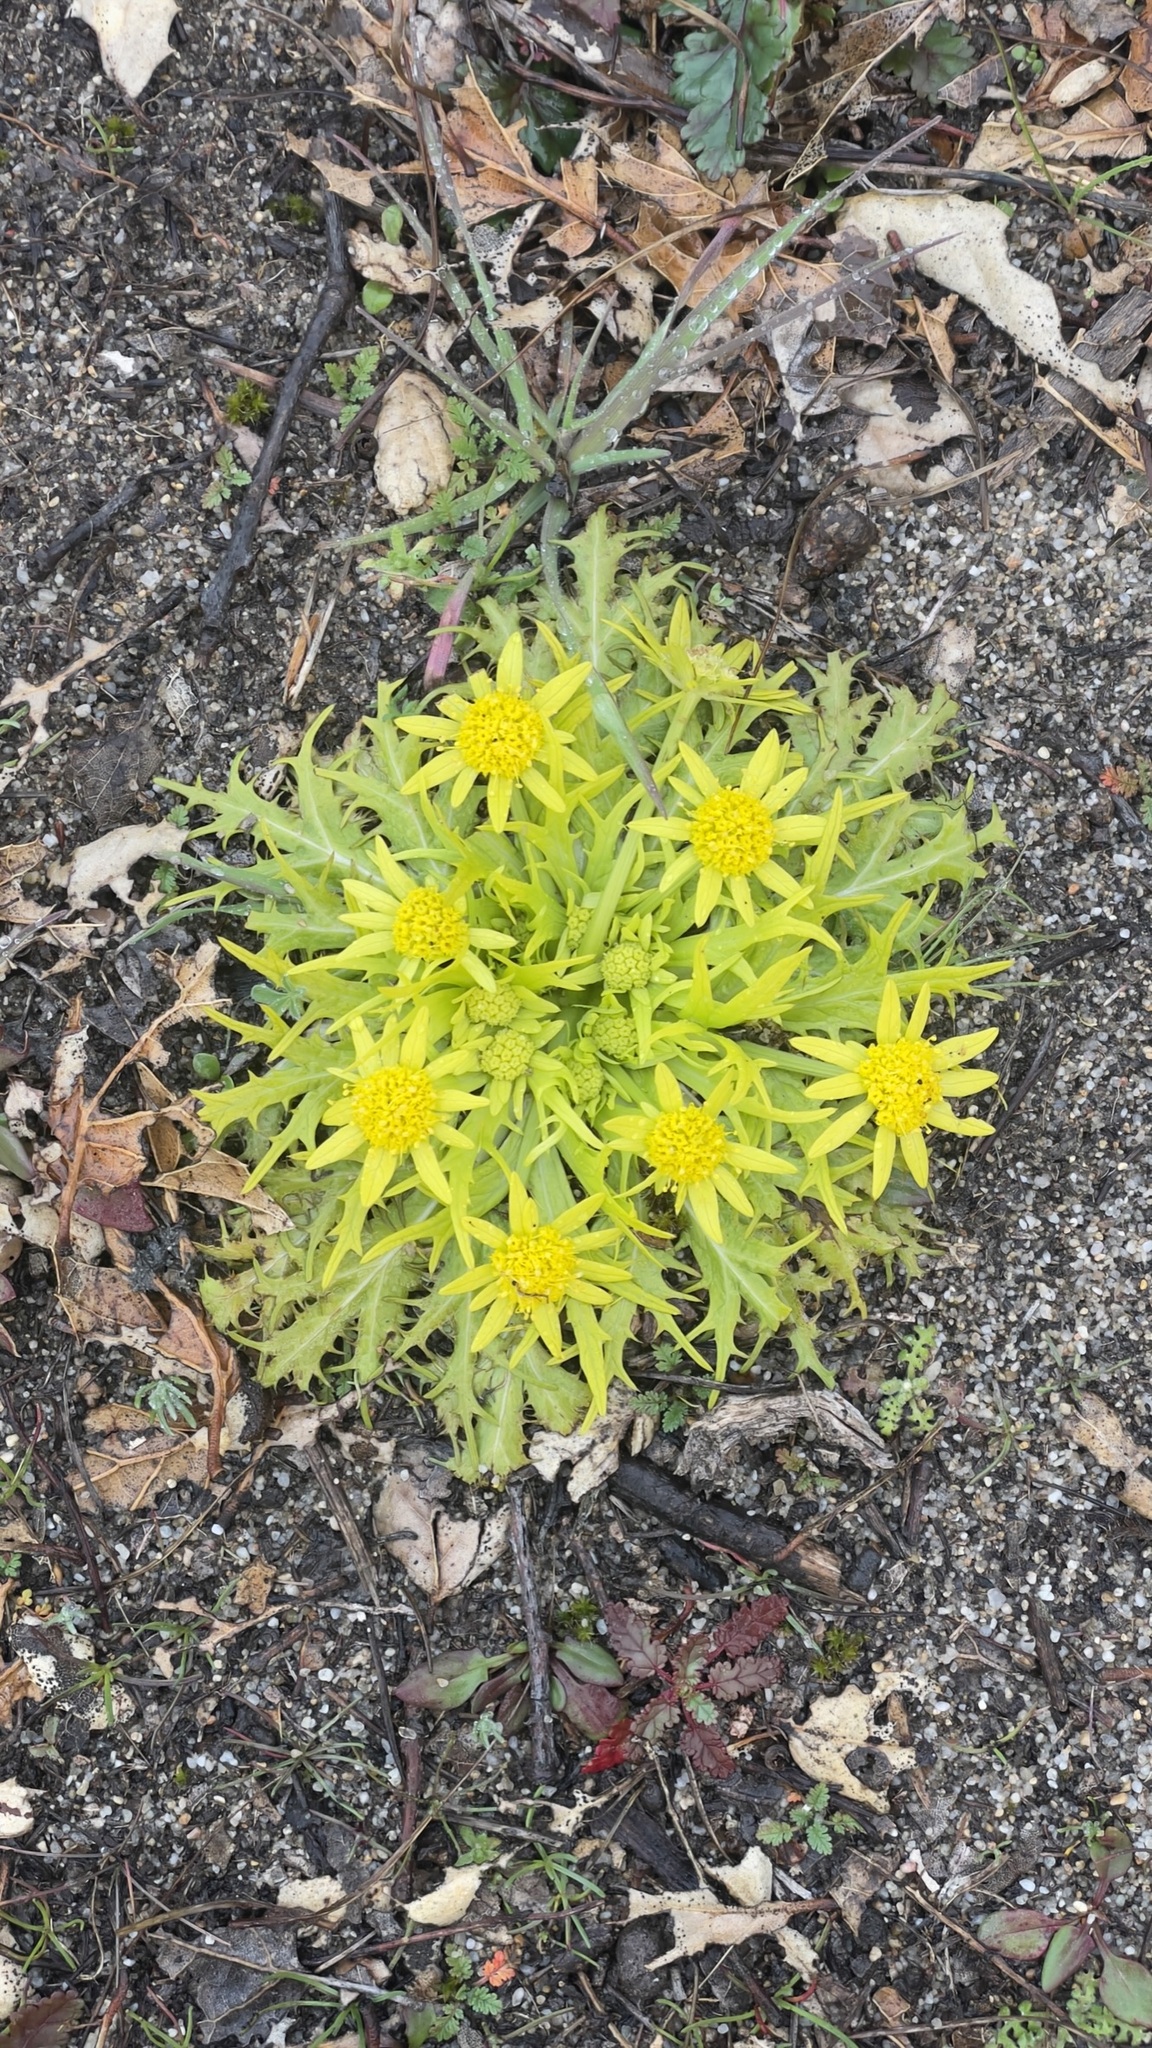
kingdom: Plantae
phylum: Tracheophyta
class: Magnoliopsida
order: Apiales
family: Apiaceae
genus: Sanicula
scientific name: Sanicula arctopoides
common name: Footsteps-of-spring
